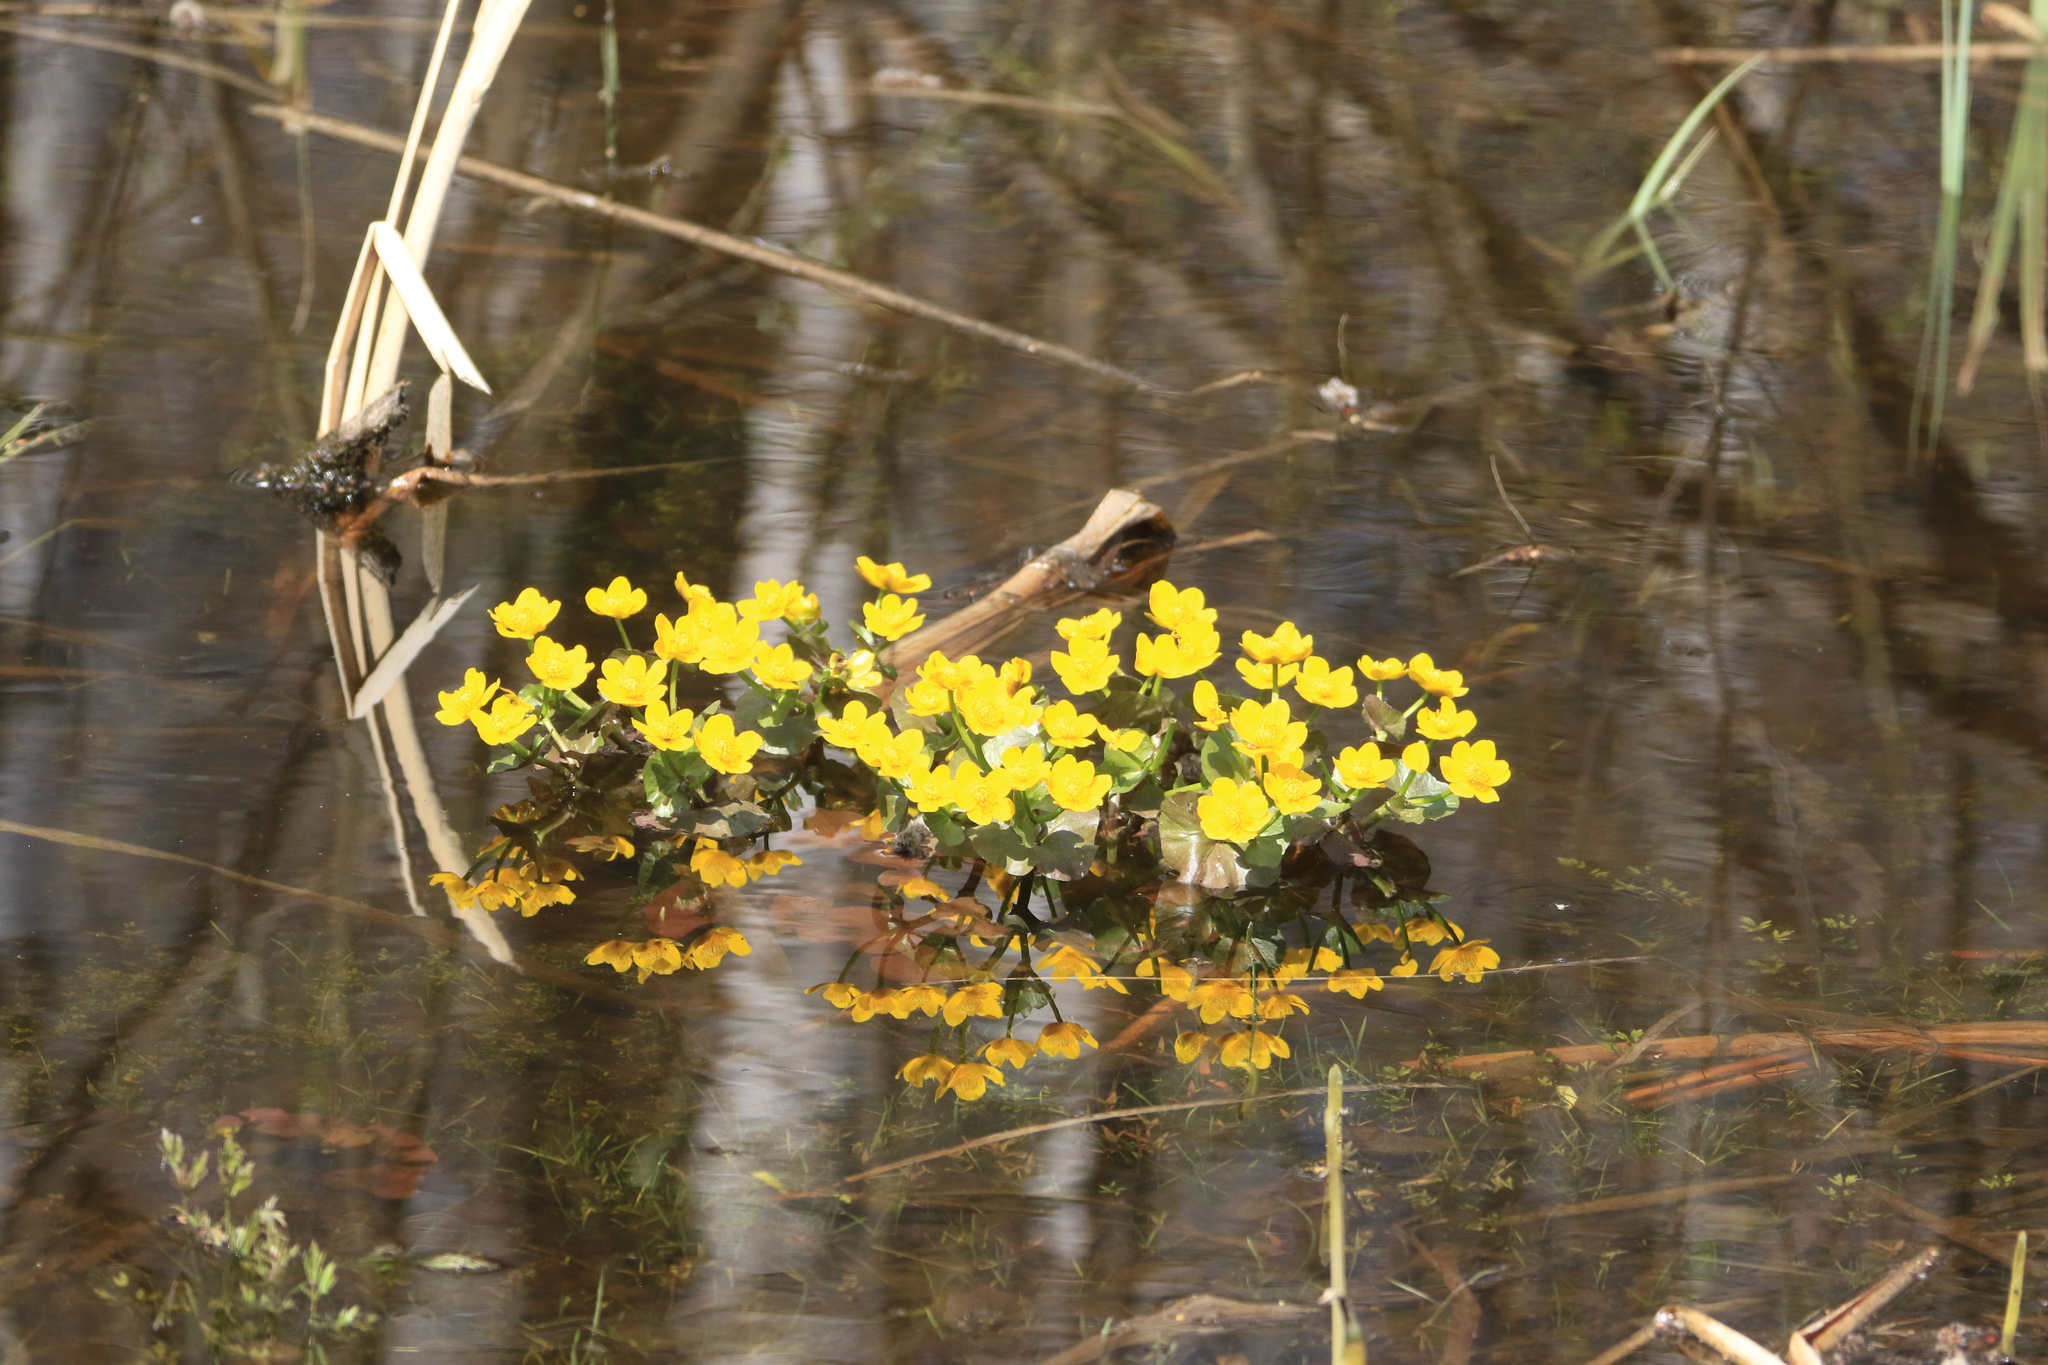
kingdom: Plantae
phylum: Tracheophyta
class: Magnoliopsida
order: Ranunculales
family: Ranunculaceae
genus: Caltha
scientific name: Caltha palustris
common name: Marsh marigold
